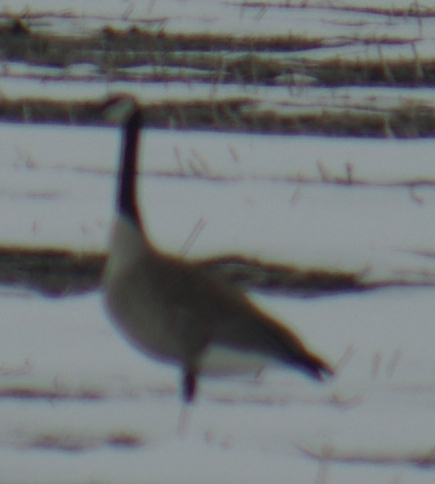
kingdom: Animalia
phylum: Chordata
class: Aves
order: Anseriformes
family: Anatidae
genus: Branta
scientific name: Branta canadensis
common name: Canada goose
